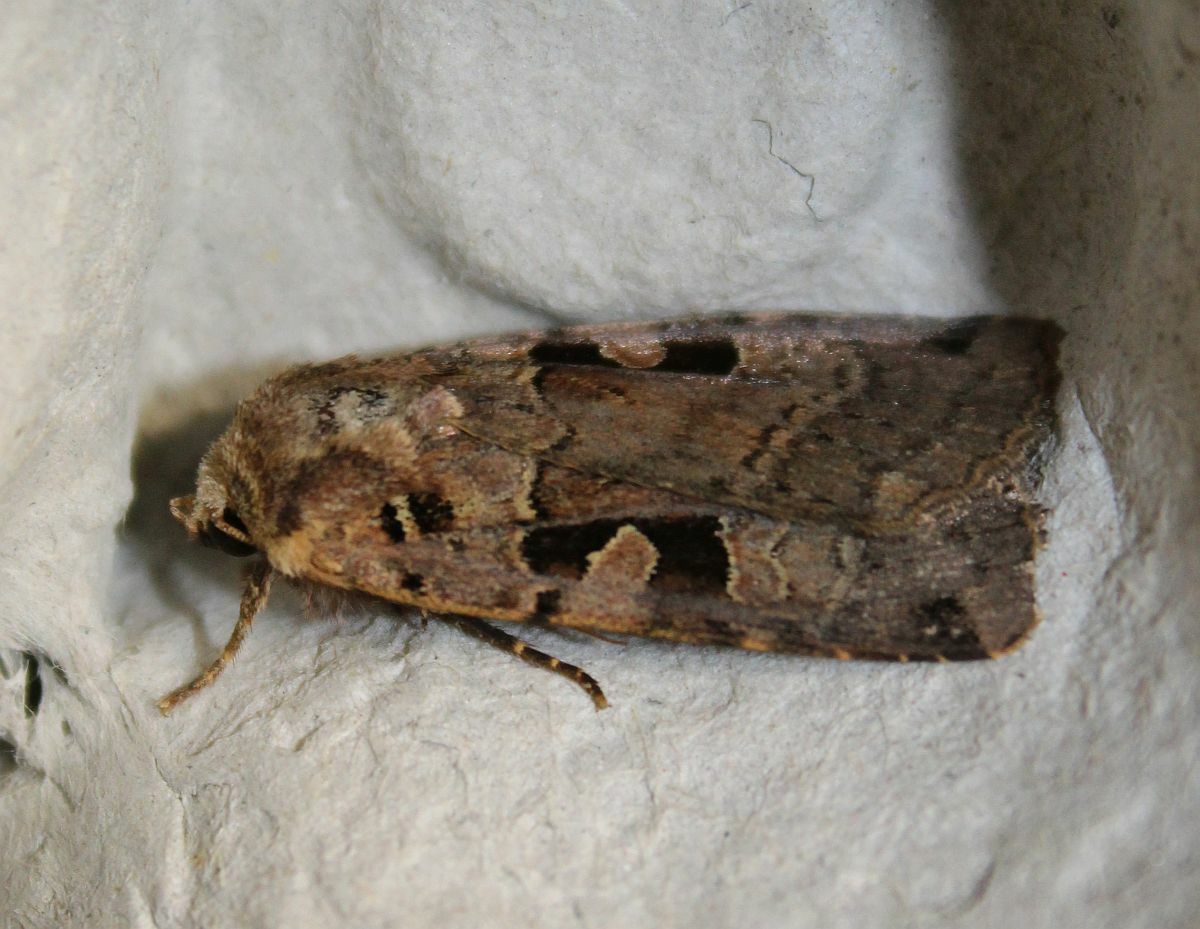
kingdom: Animalia
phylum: Arthropoda
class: Insecta
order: Lepidoptera
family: Noctuidae
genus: Xestia
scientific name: Xestia triangulum
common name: Double square-spot
